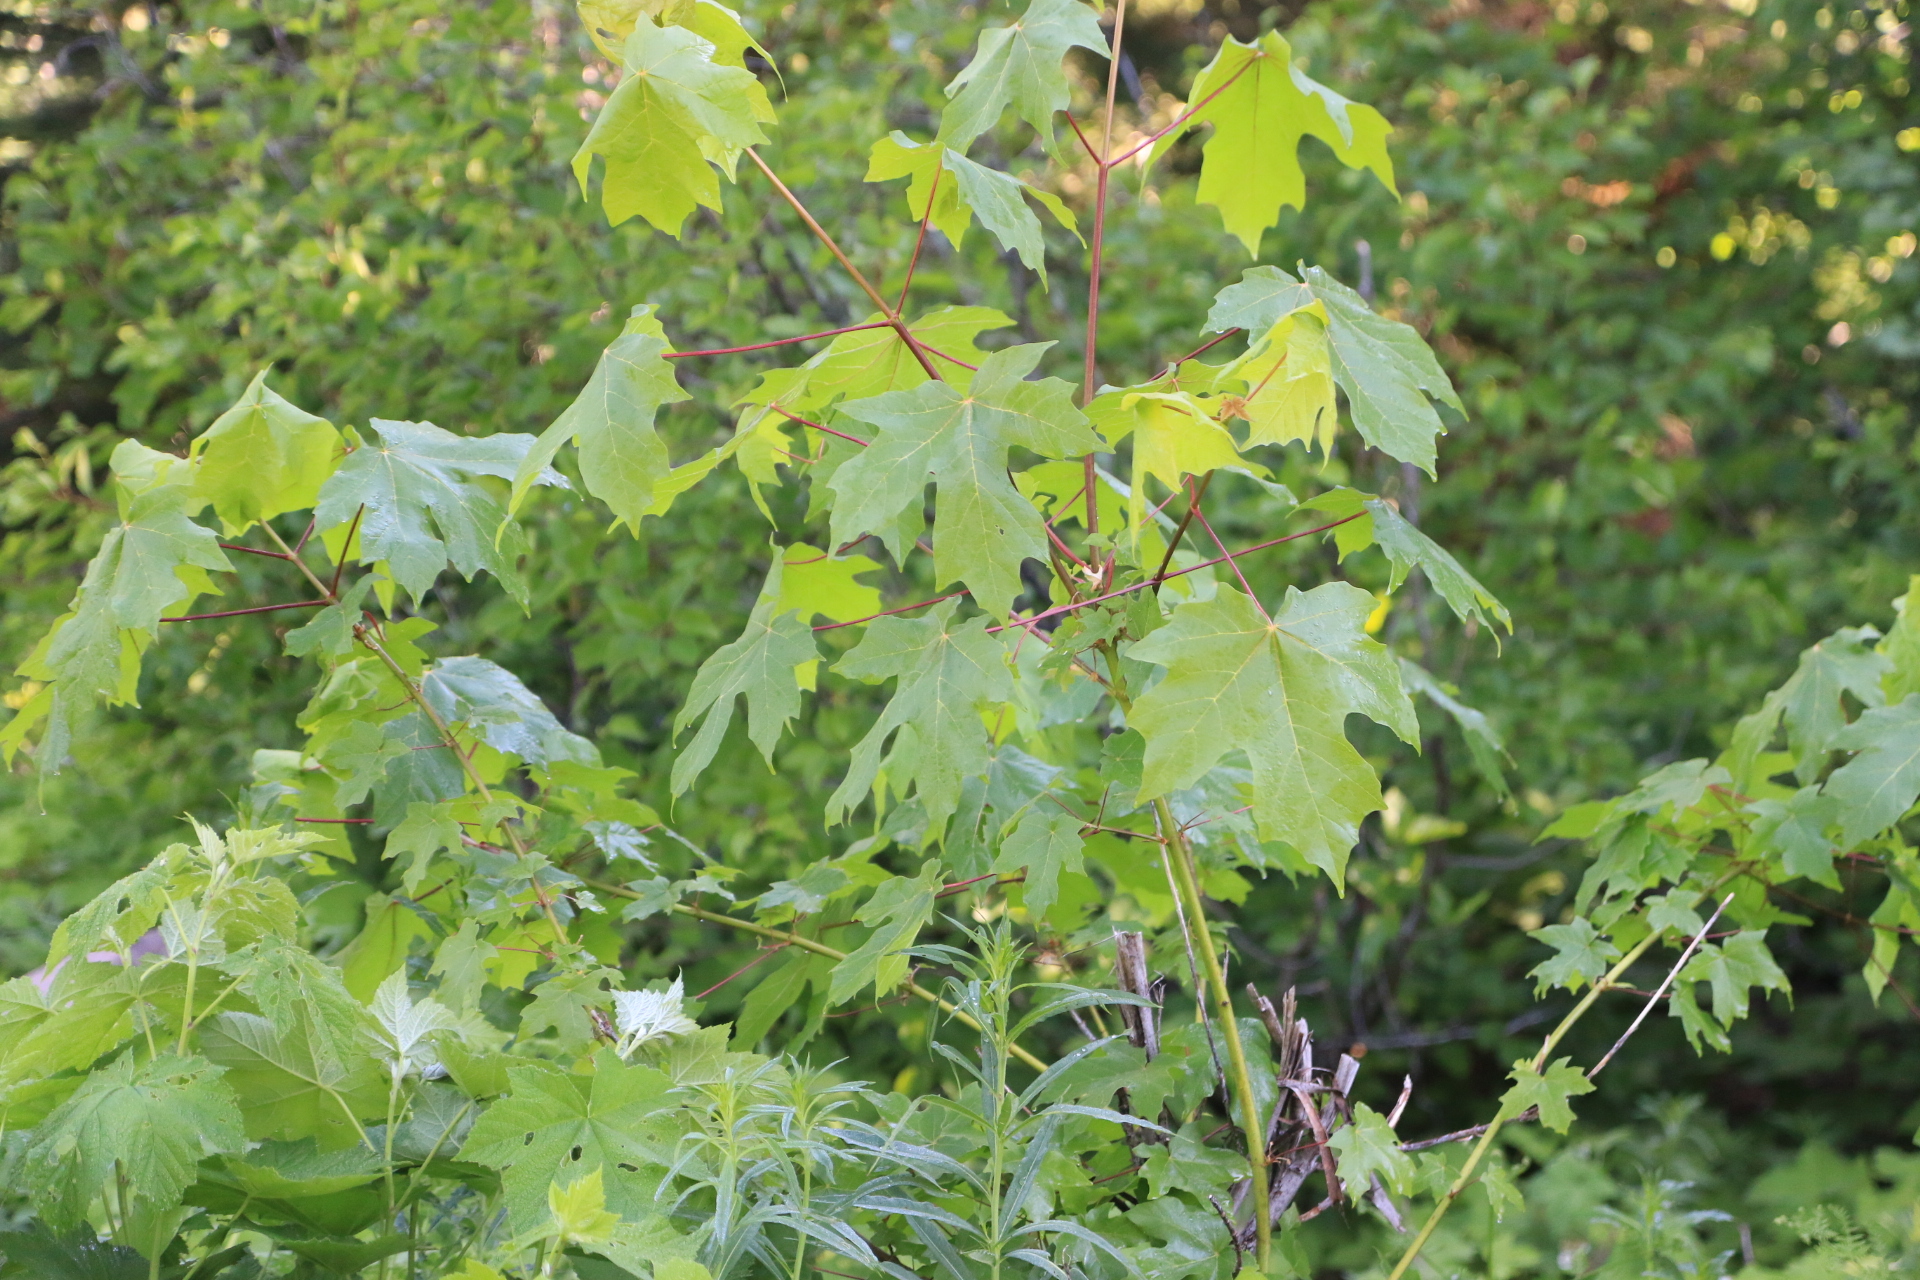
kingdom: Plantae
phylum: Tracheophyta
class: Magnoliopsida
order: Sapindales
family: Sapindaceae
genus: Acer
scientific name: Acer macrophyllum
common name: Oregon maple
